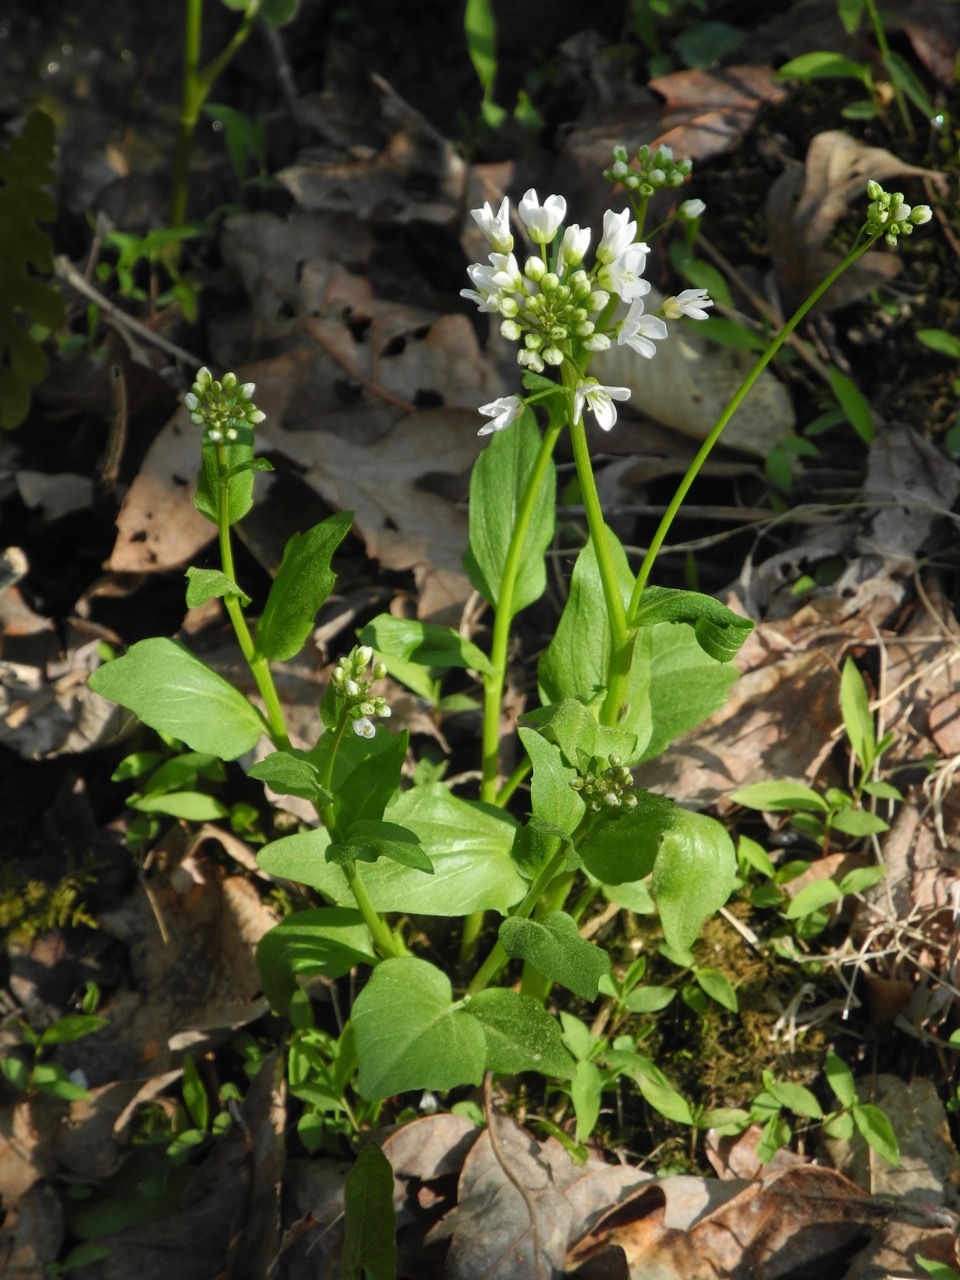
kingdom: Plantae
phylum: Tracheophyta
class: Magnoliopsida
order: Brassicales
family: Brassicaceae
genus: Cardamine
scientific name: Cardamine bulbosa
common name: Spring cress
